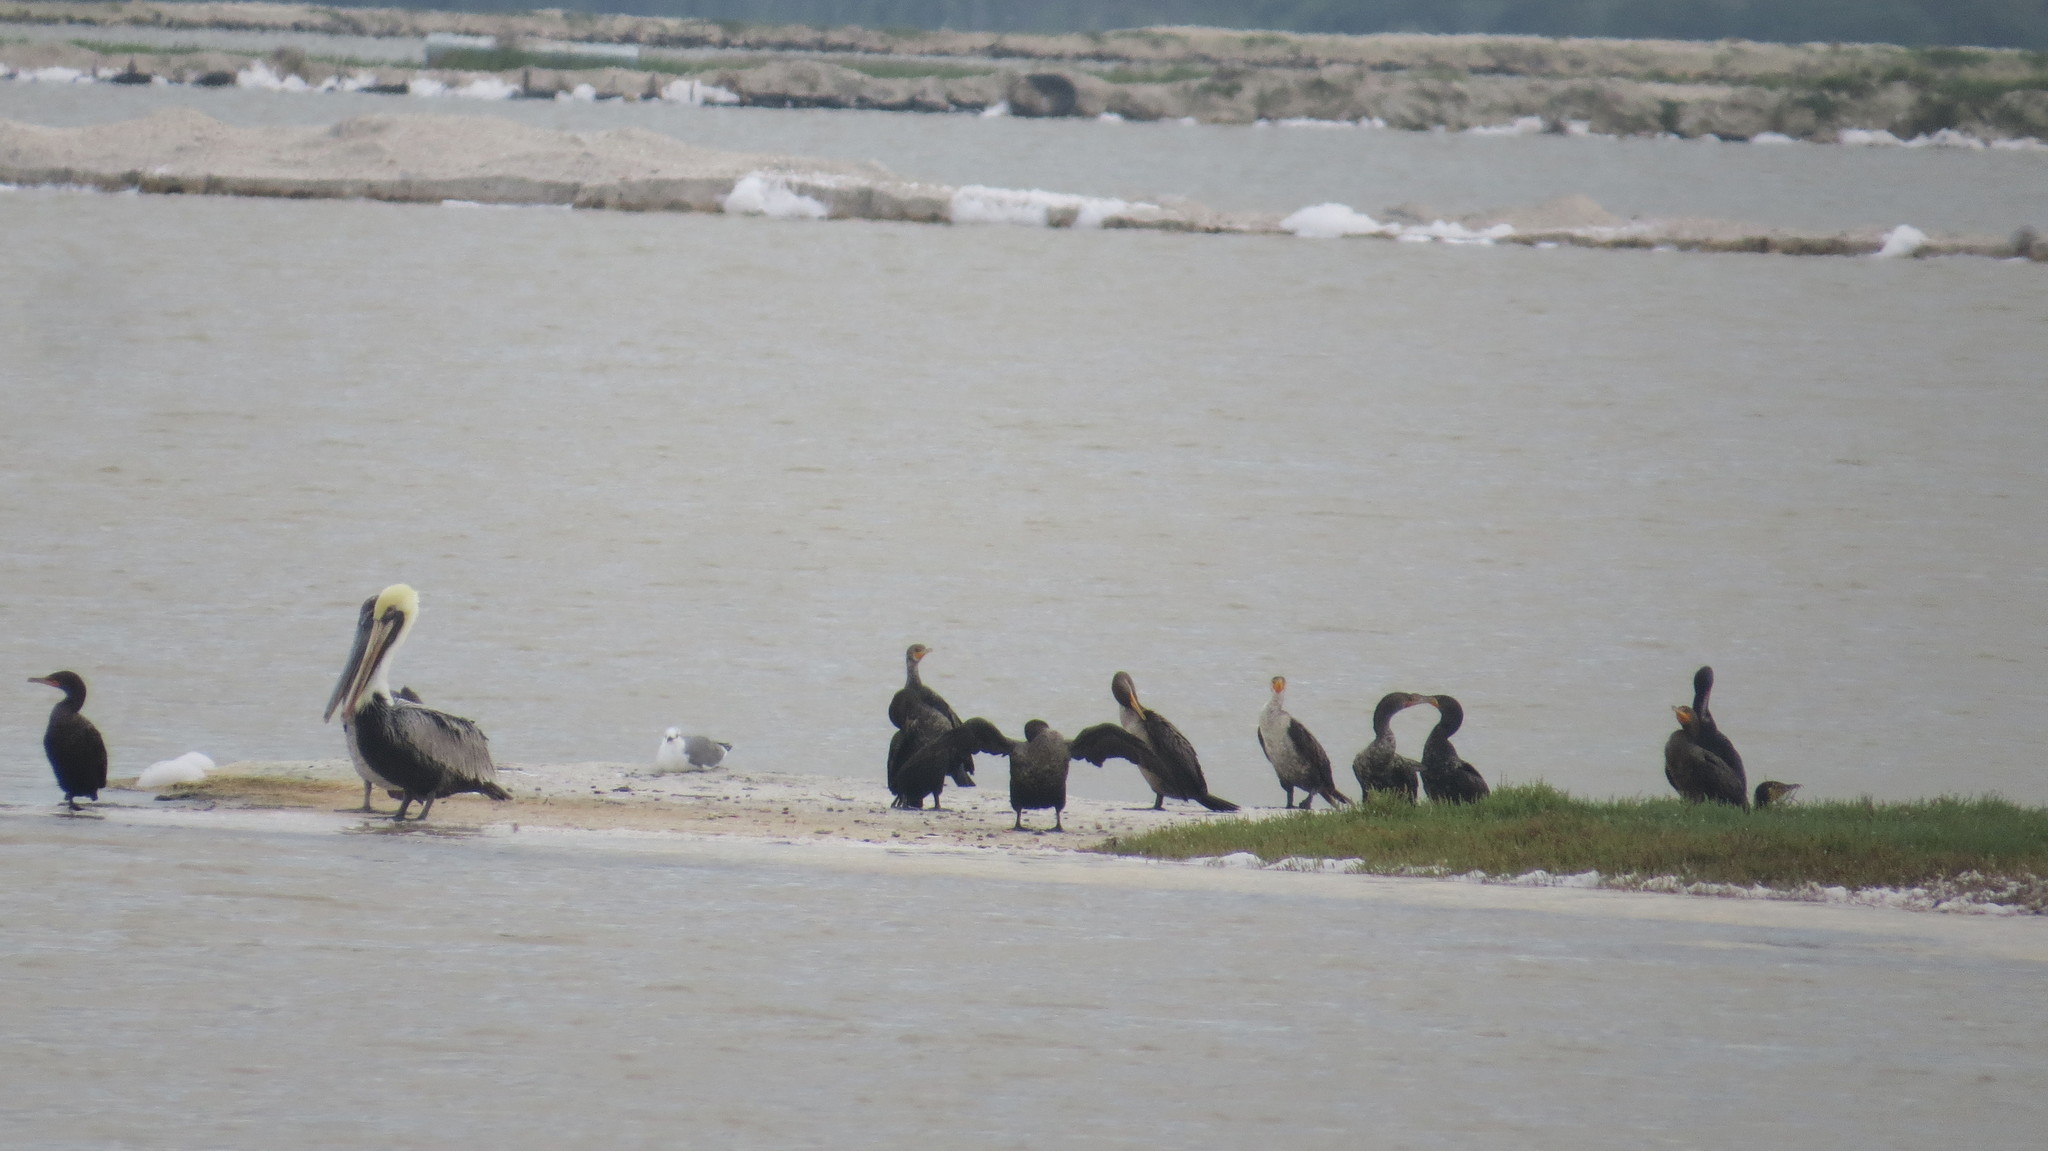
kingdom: Animalia
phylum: Chordata
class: Aves
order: Pelecaniformes
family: Pelecanidae
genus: Pelecanus
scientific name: Pelecanus occidentalis
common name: Brown pelican
